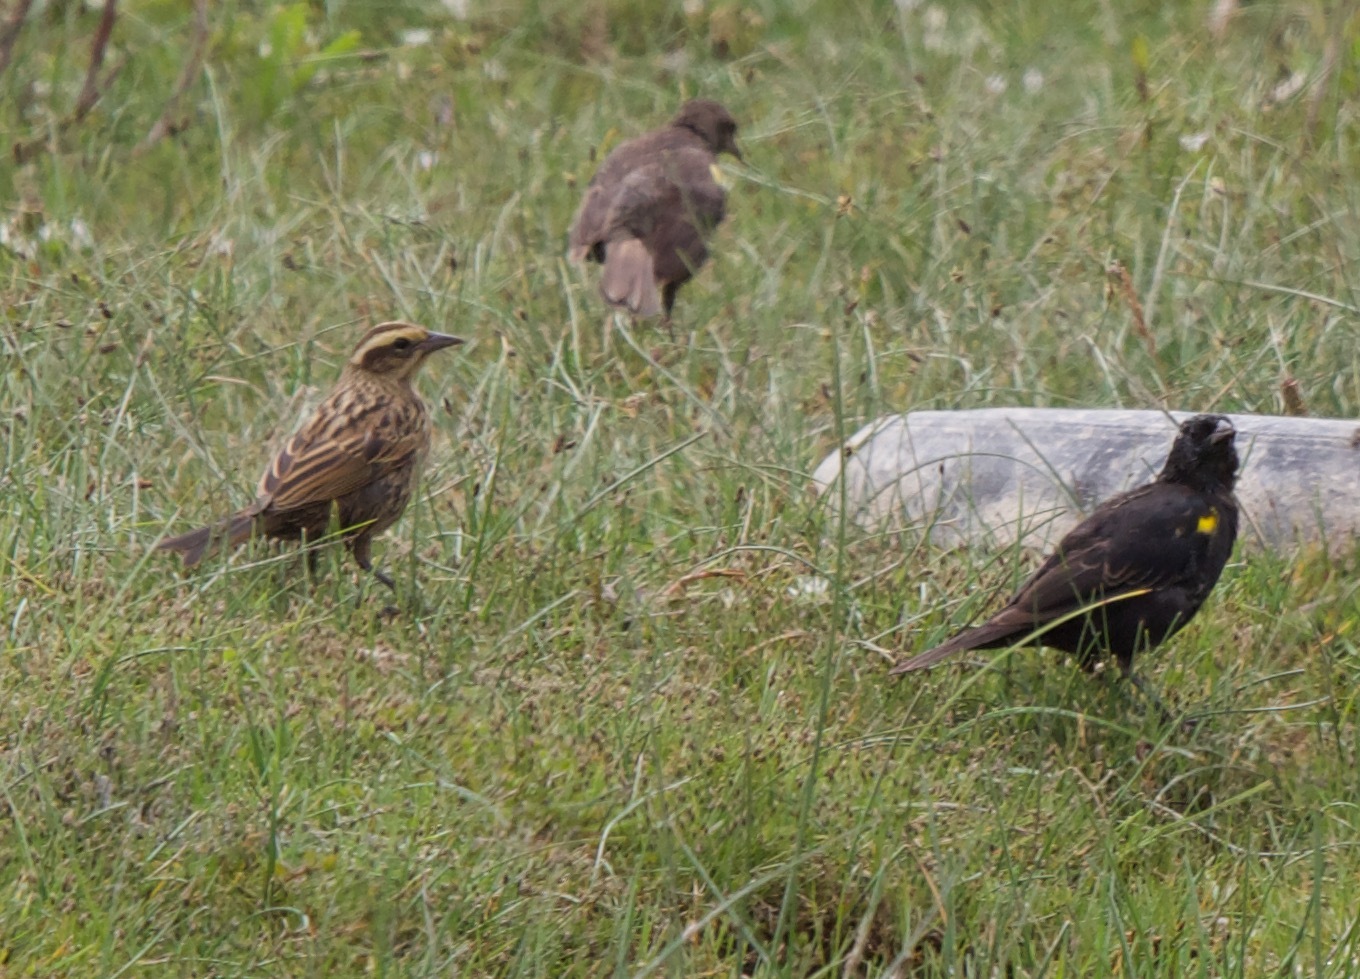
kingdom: Animalia
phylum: Chordata
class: Aves
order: Passeriformes
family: Icteridae
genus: Agelasticus
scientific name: Agelasticus thilius
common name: Yellow-winged blackbird
